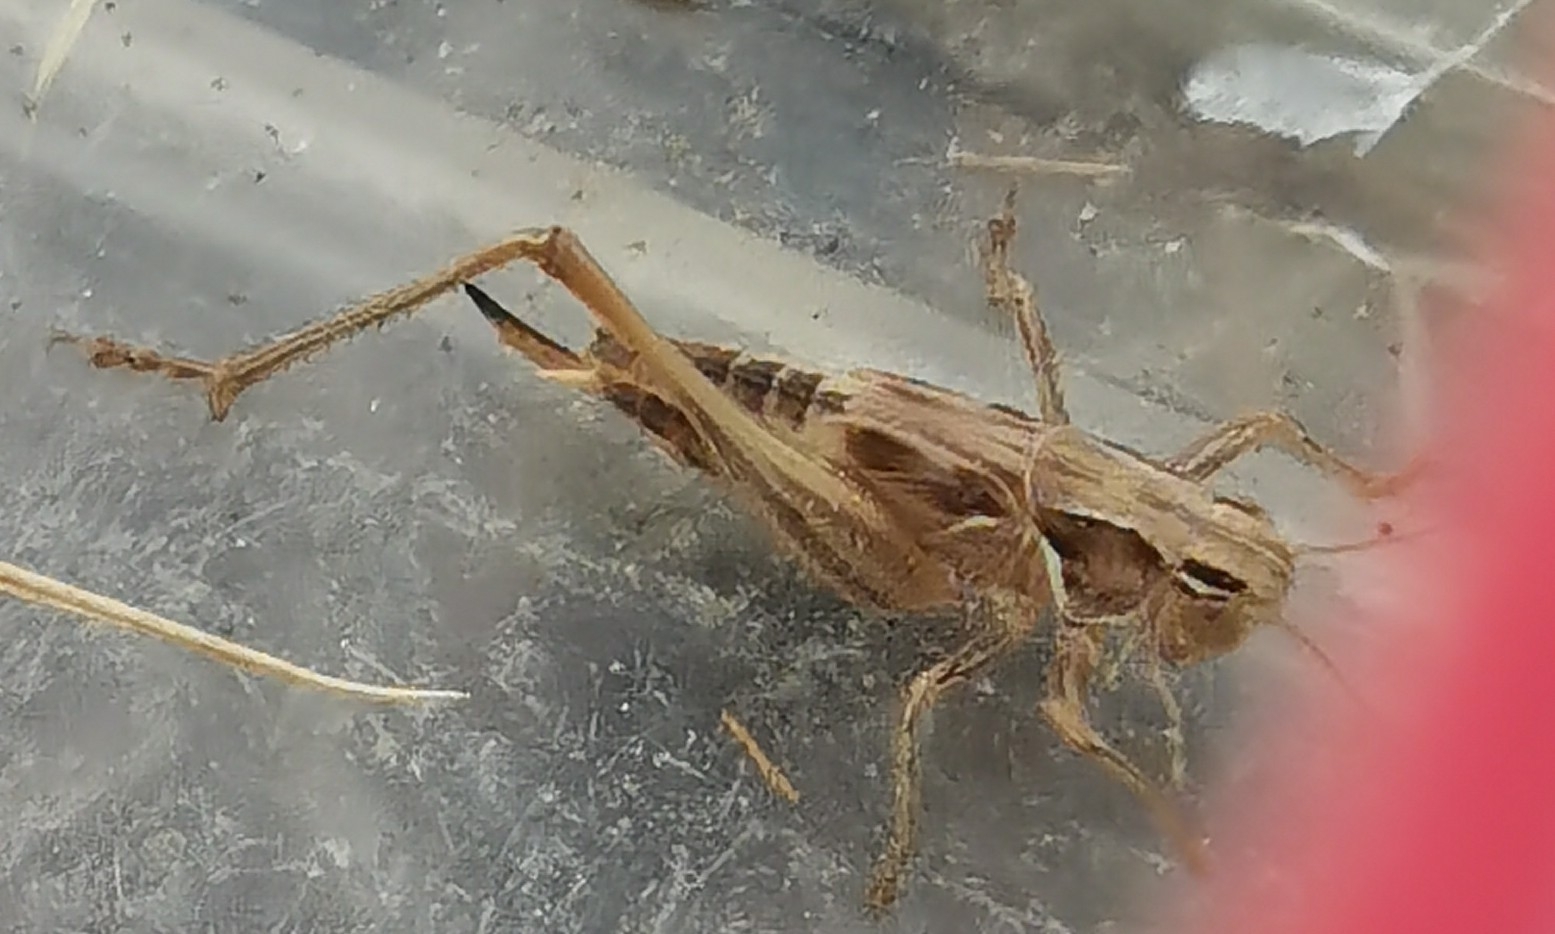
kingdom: Animalia
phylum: Arthropoda
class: Insecta
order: Orthoptera
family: Tettigoniidae
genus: Tessellana
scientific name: Tessellana tessellata
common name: Grasshopper
